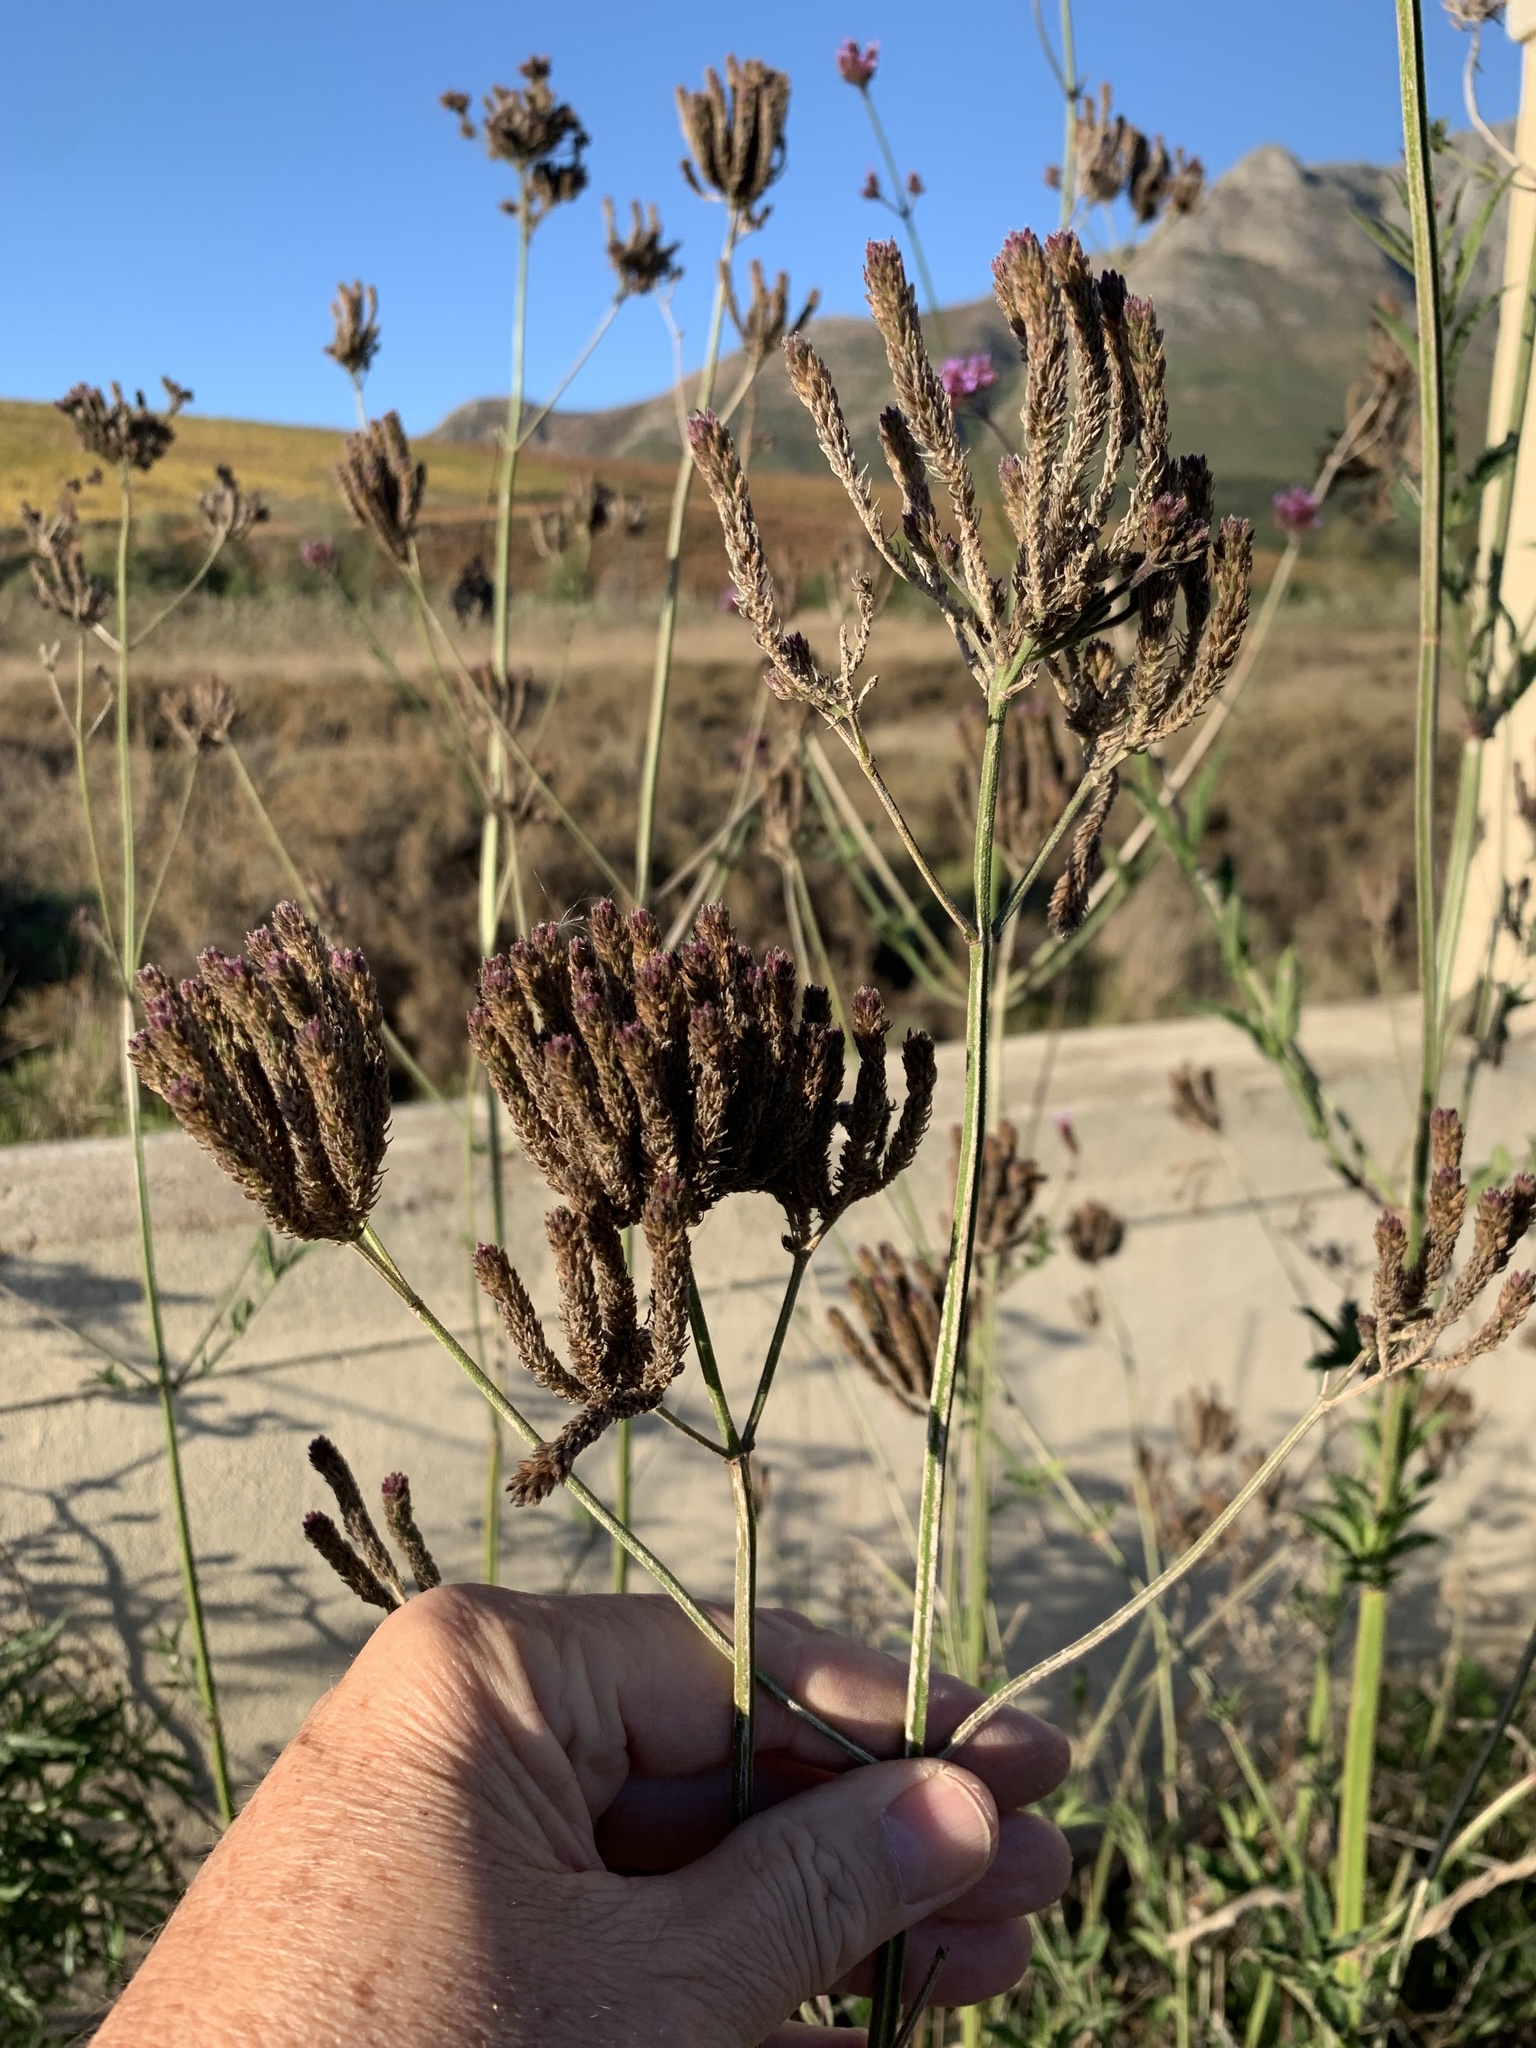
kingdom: Plantae
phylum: Tracheophyta
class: Magnoliopsida
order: Lamiales
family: Verbenaceae
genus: Verbena
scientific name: Verbena bonariensis
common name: Purpletop vervain
